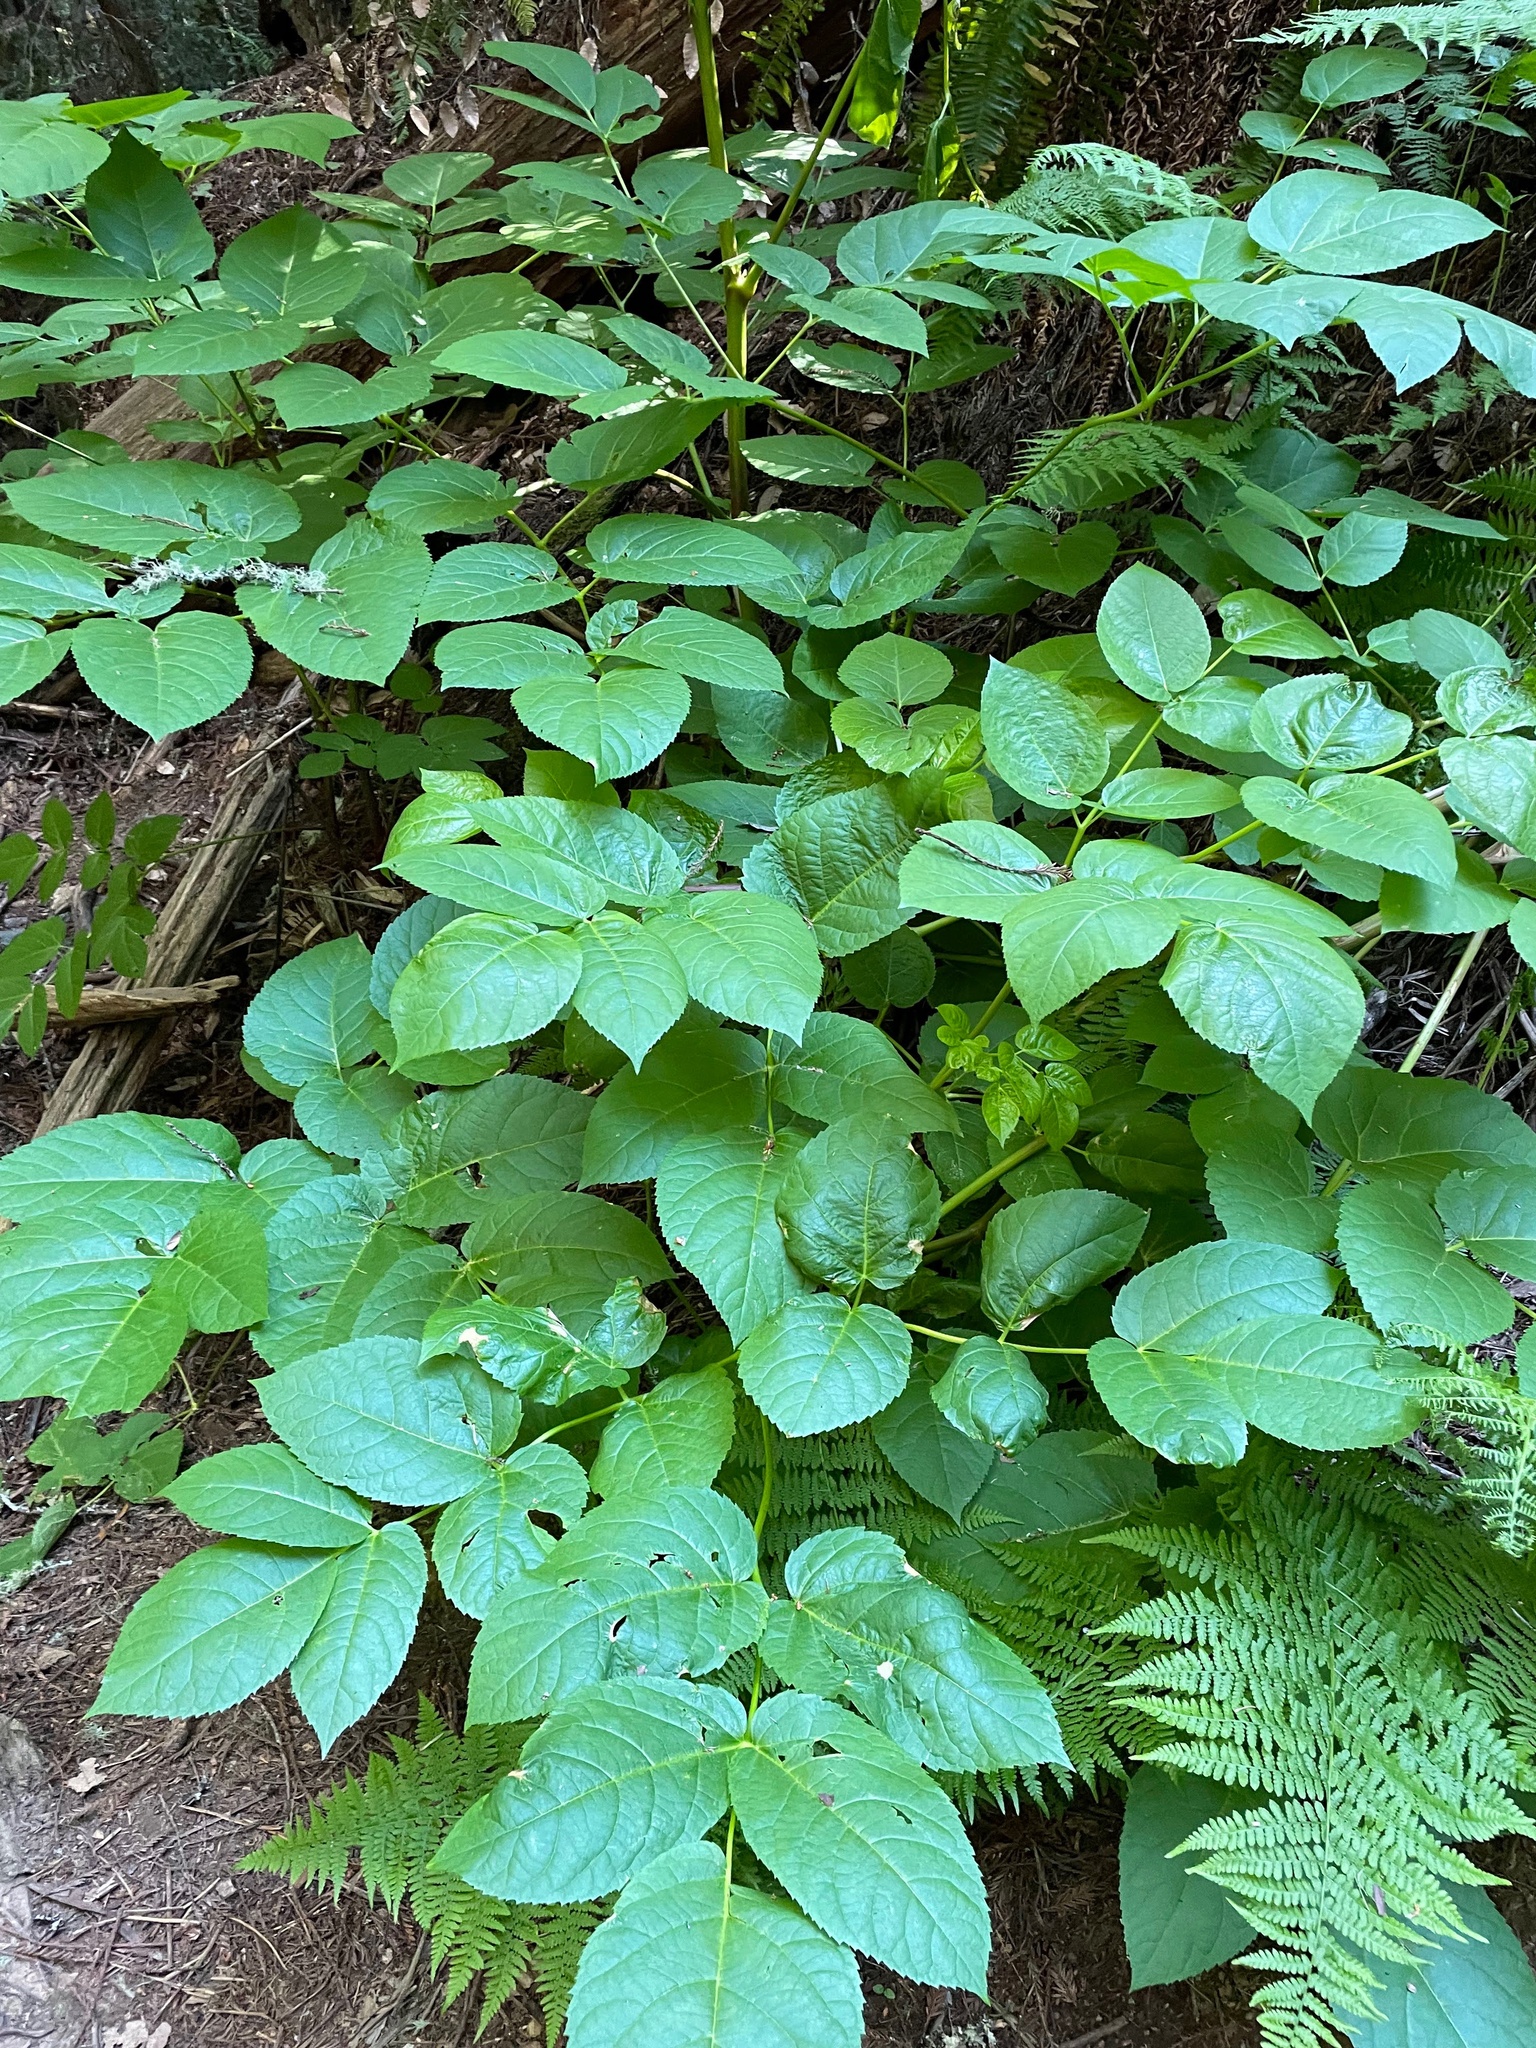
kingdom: Plantae
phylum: Tracheophyta
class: Magnoliopsida
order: Apiales
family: Araliaceae
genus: Aralia
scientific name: Aralia californica
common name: California-ginseng
